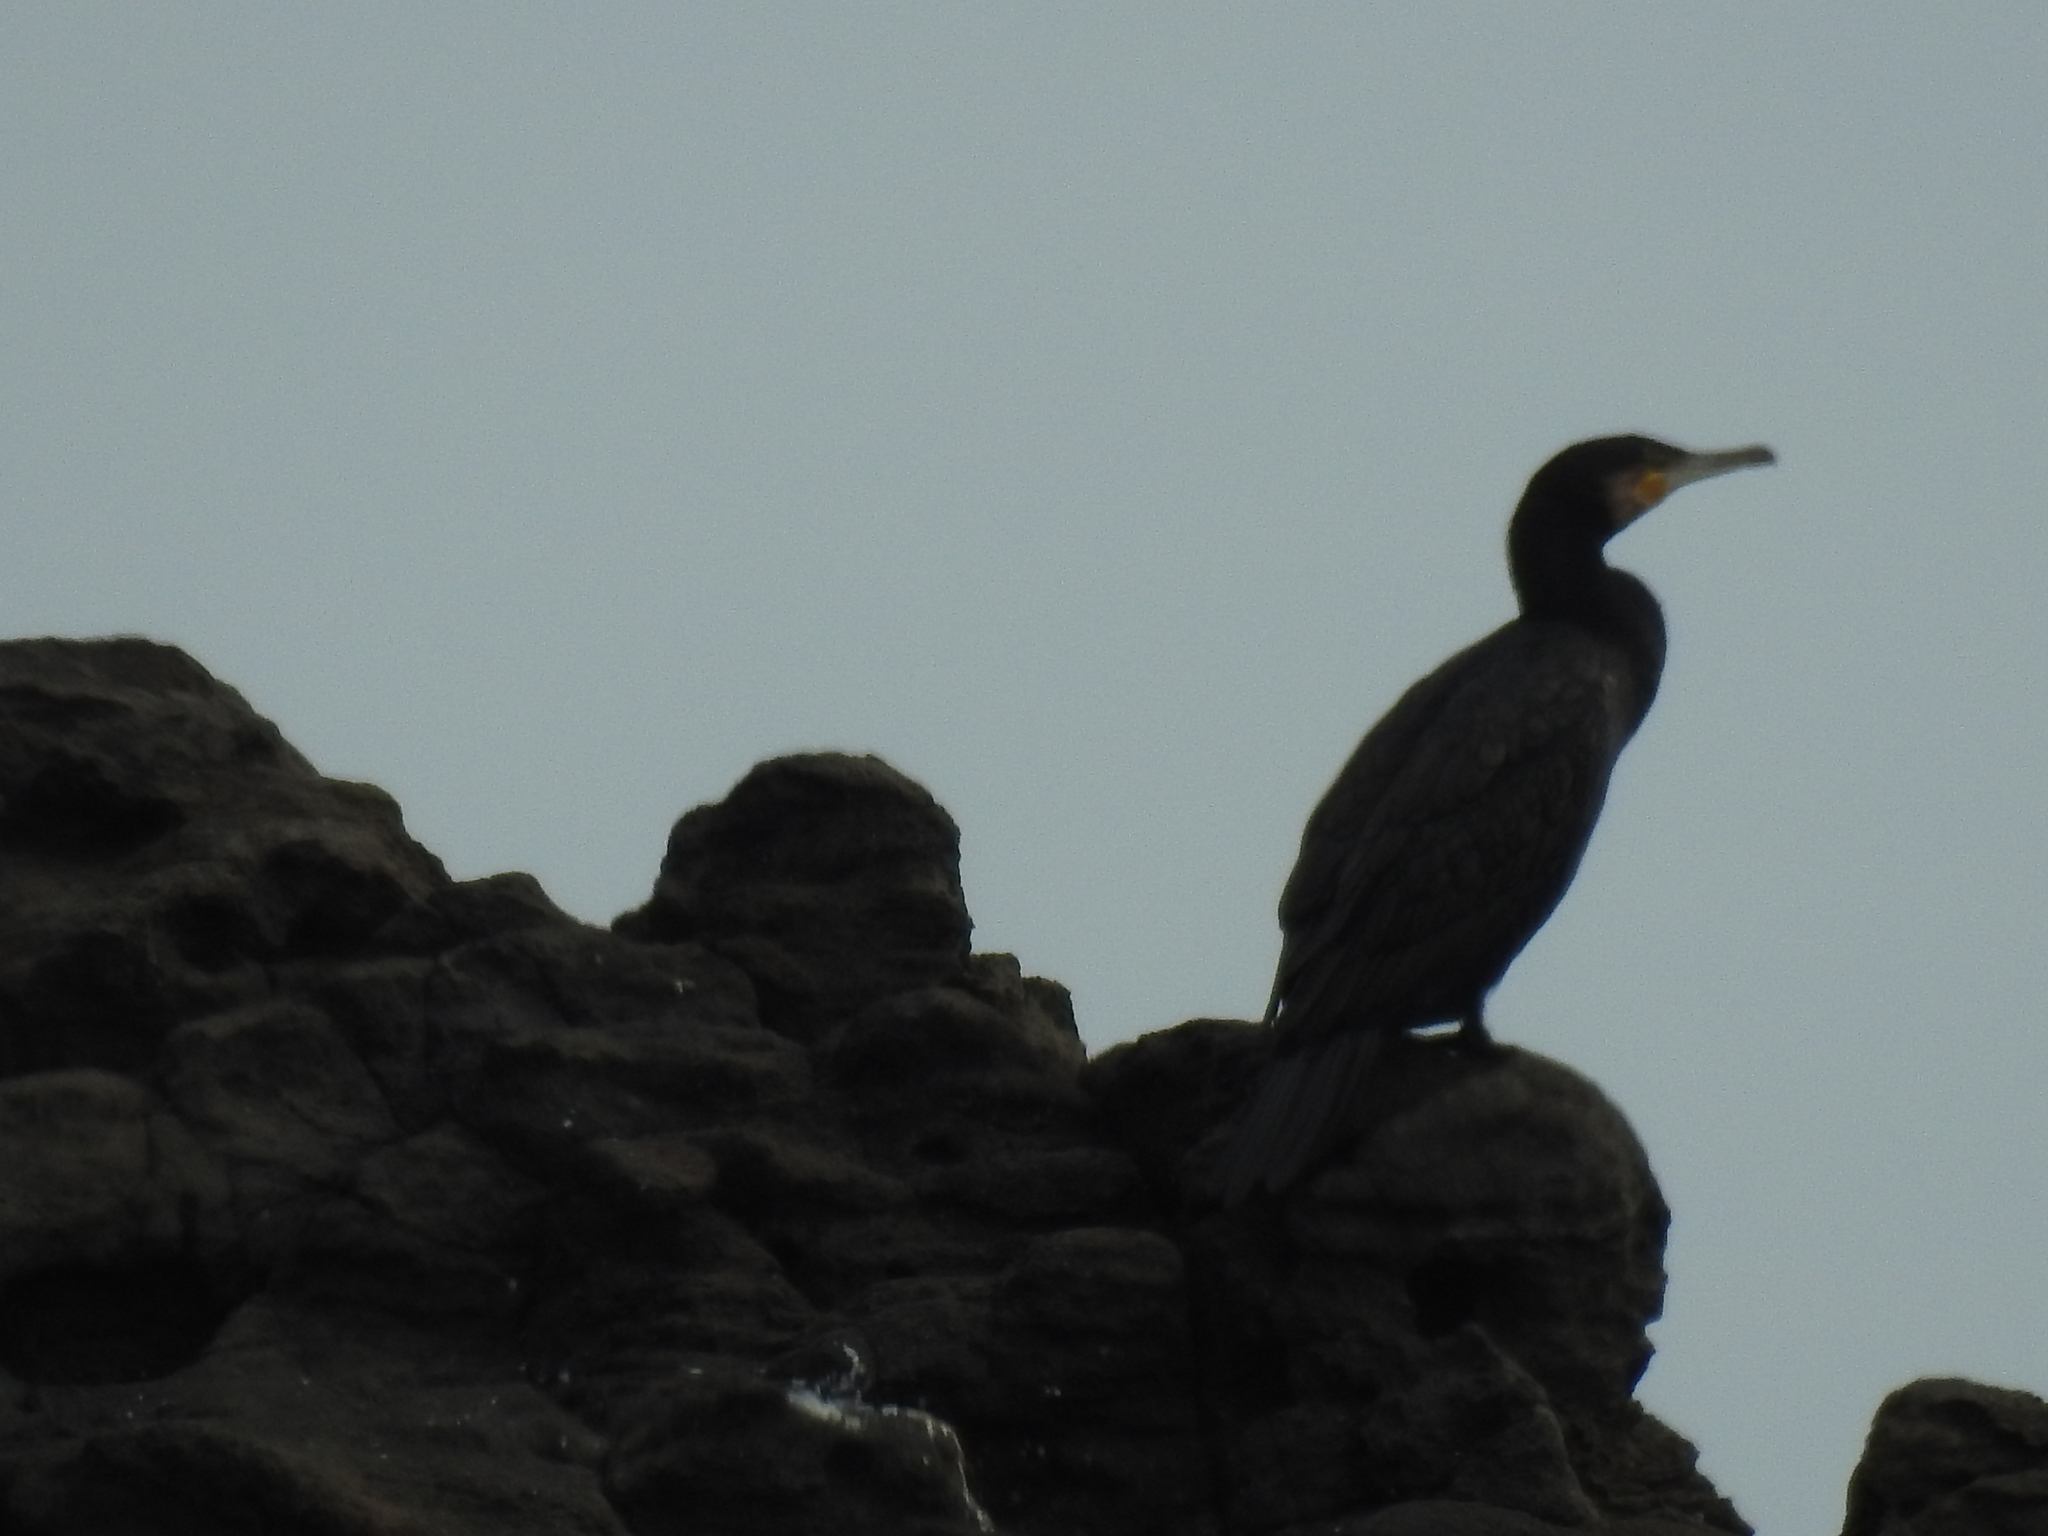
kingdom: Animalia
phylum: Chordata
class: Aves
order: Suliformes
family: Phalacrocoracidae
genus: Phalacrocorax
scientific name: Phalacrocorax carbo
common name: Great cormorant
